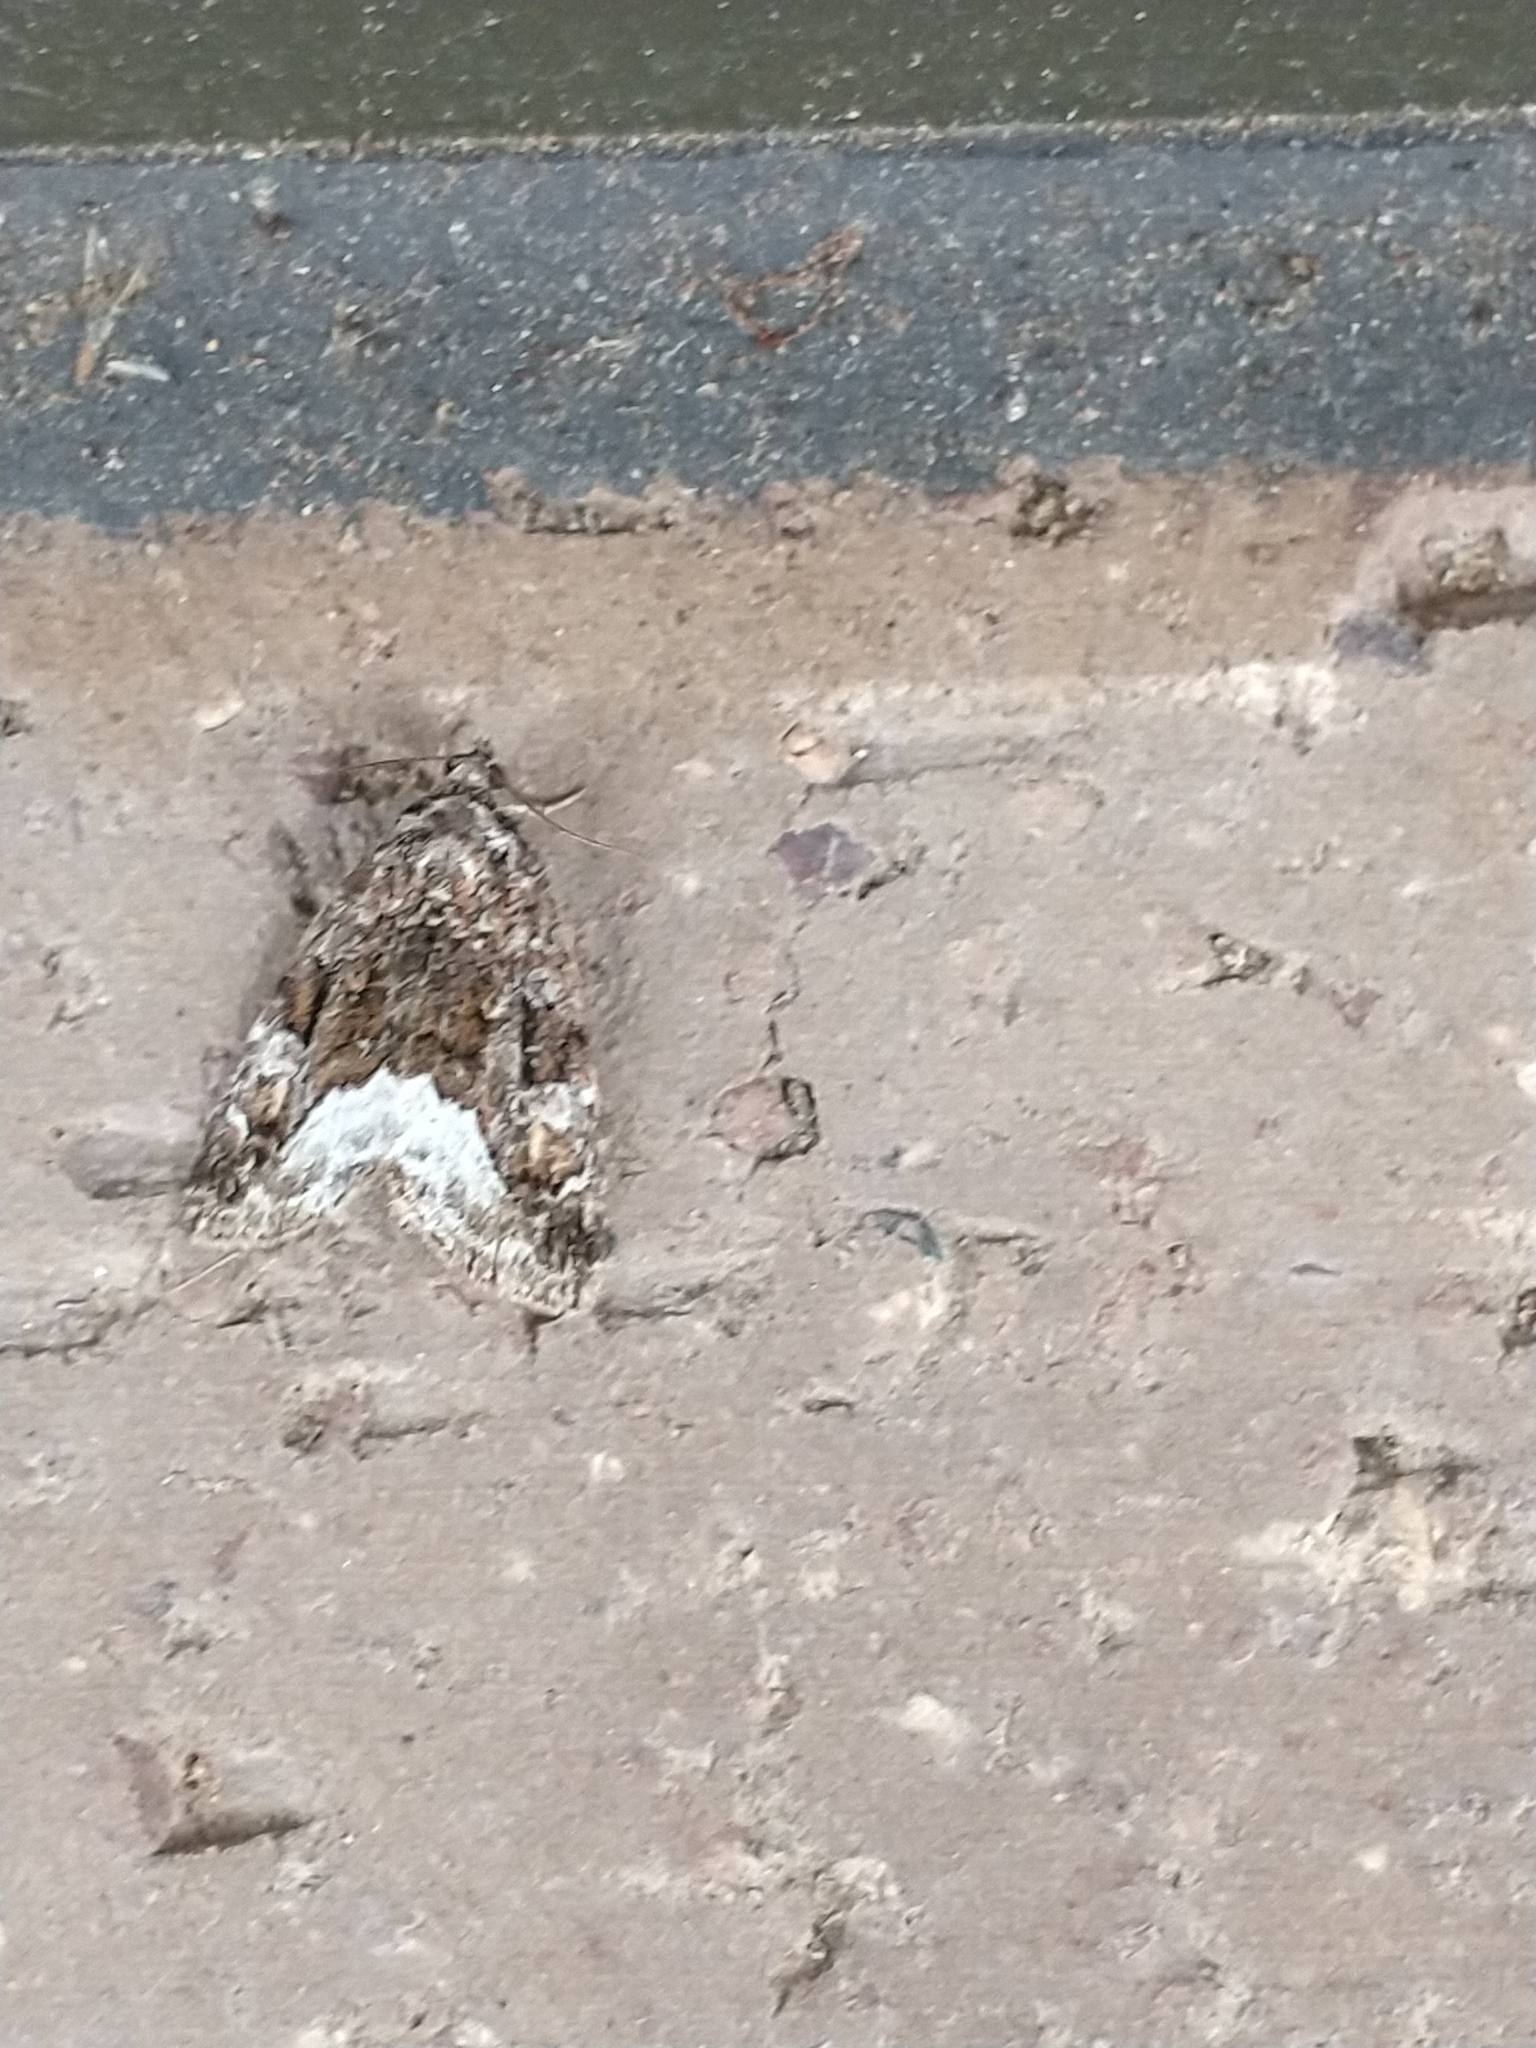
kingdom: Animalia
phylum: Arthropoda
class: Insecta
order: Lepidoptera
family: Noctuidae
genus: Deltote
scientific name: Deltote pygarga
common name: Marbled white spot
